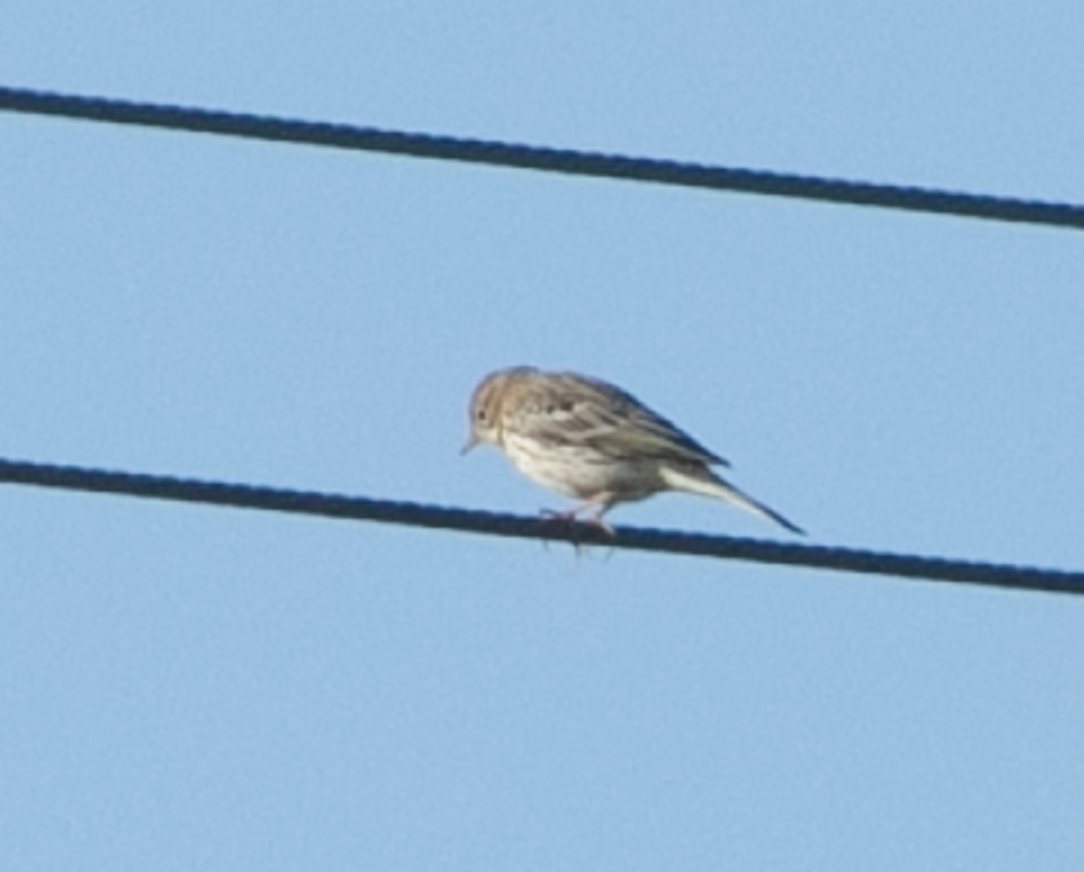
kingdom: Animalia
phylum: Chordata
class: Aves
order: Passeriformes
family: Motacillidae
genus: Anthus
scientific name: Anthus pratensis
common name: Meadow pipit
